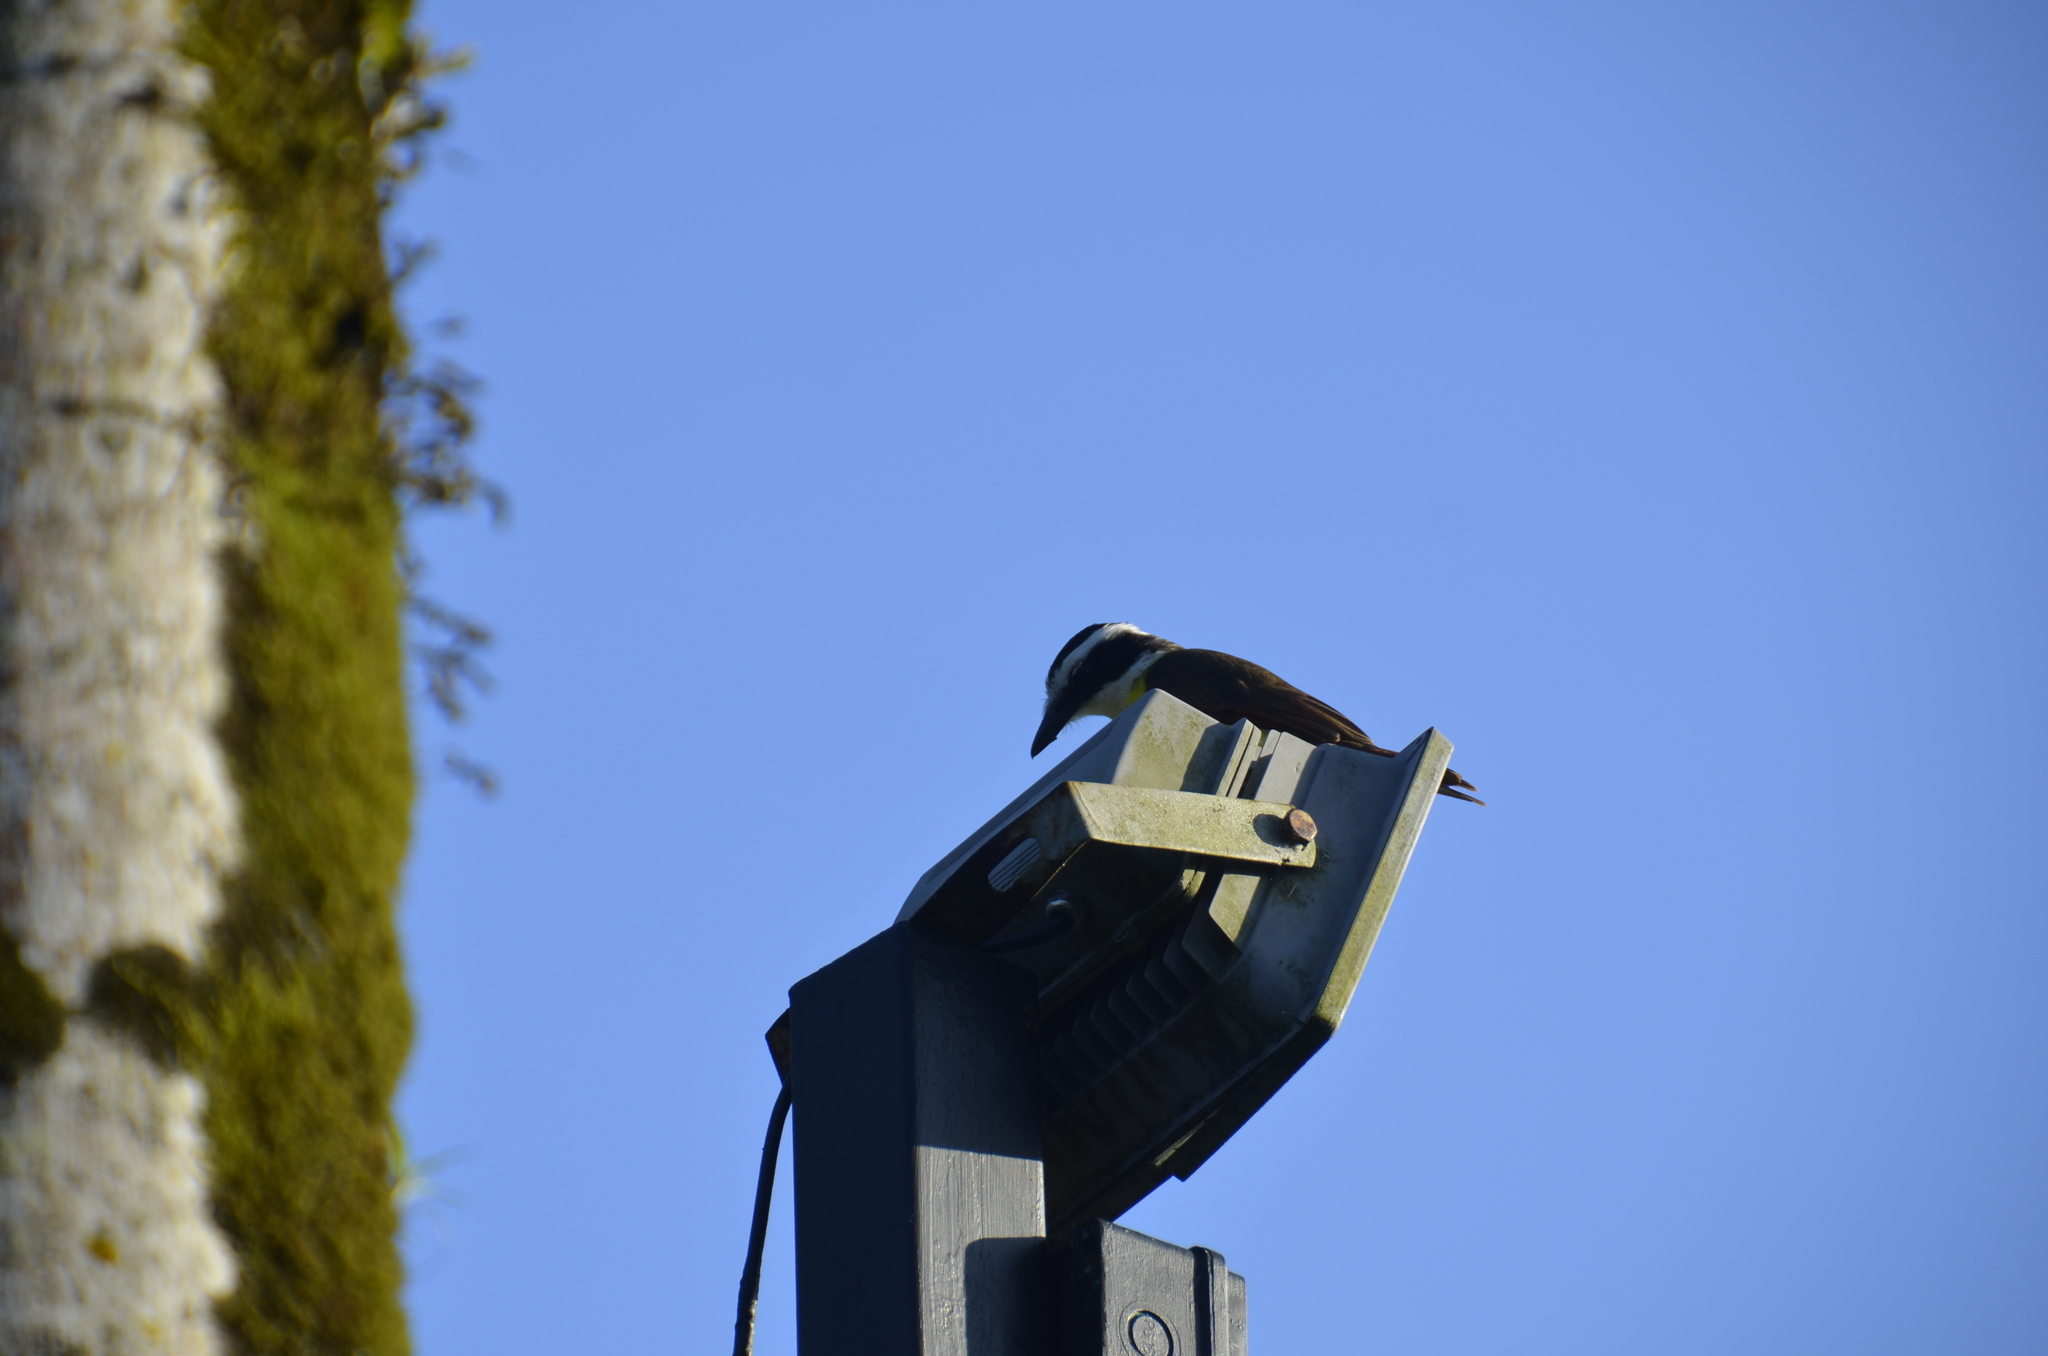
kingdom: Animalia
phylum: Chordata
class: Aves
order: Passeriformes
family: Tyrannidae
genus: Pitangus
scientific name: Pitangus sulphuratus
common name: Great kiskadee
